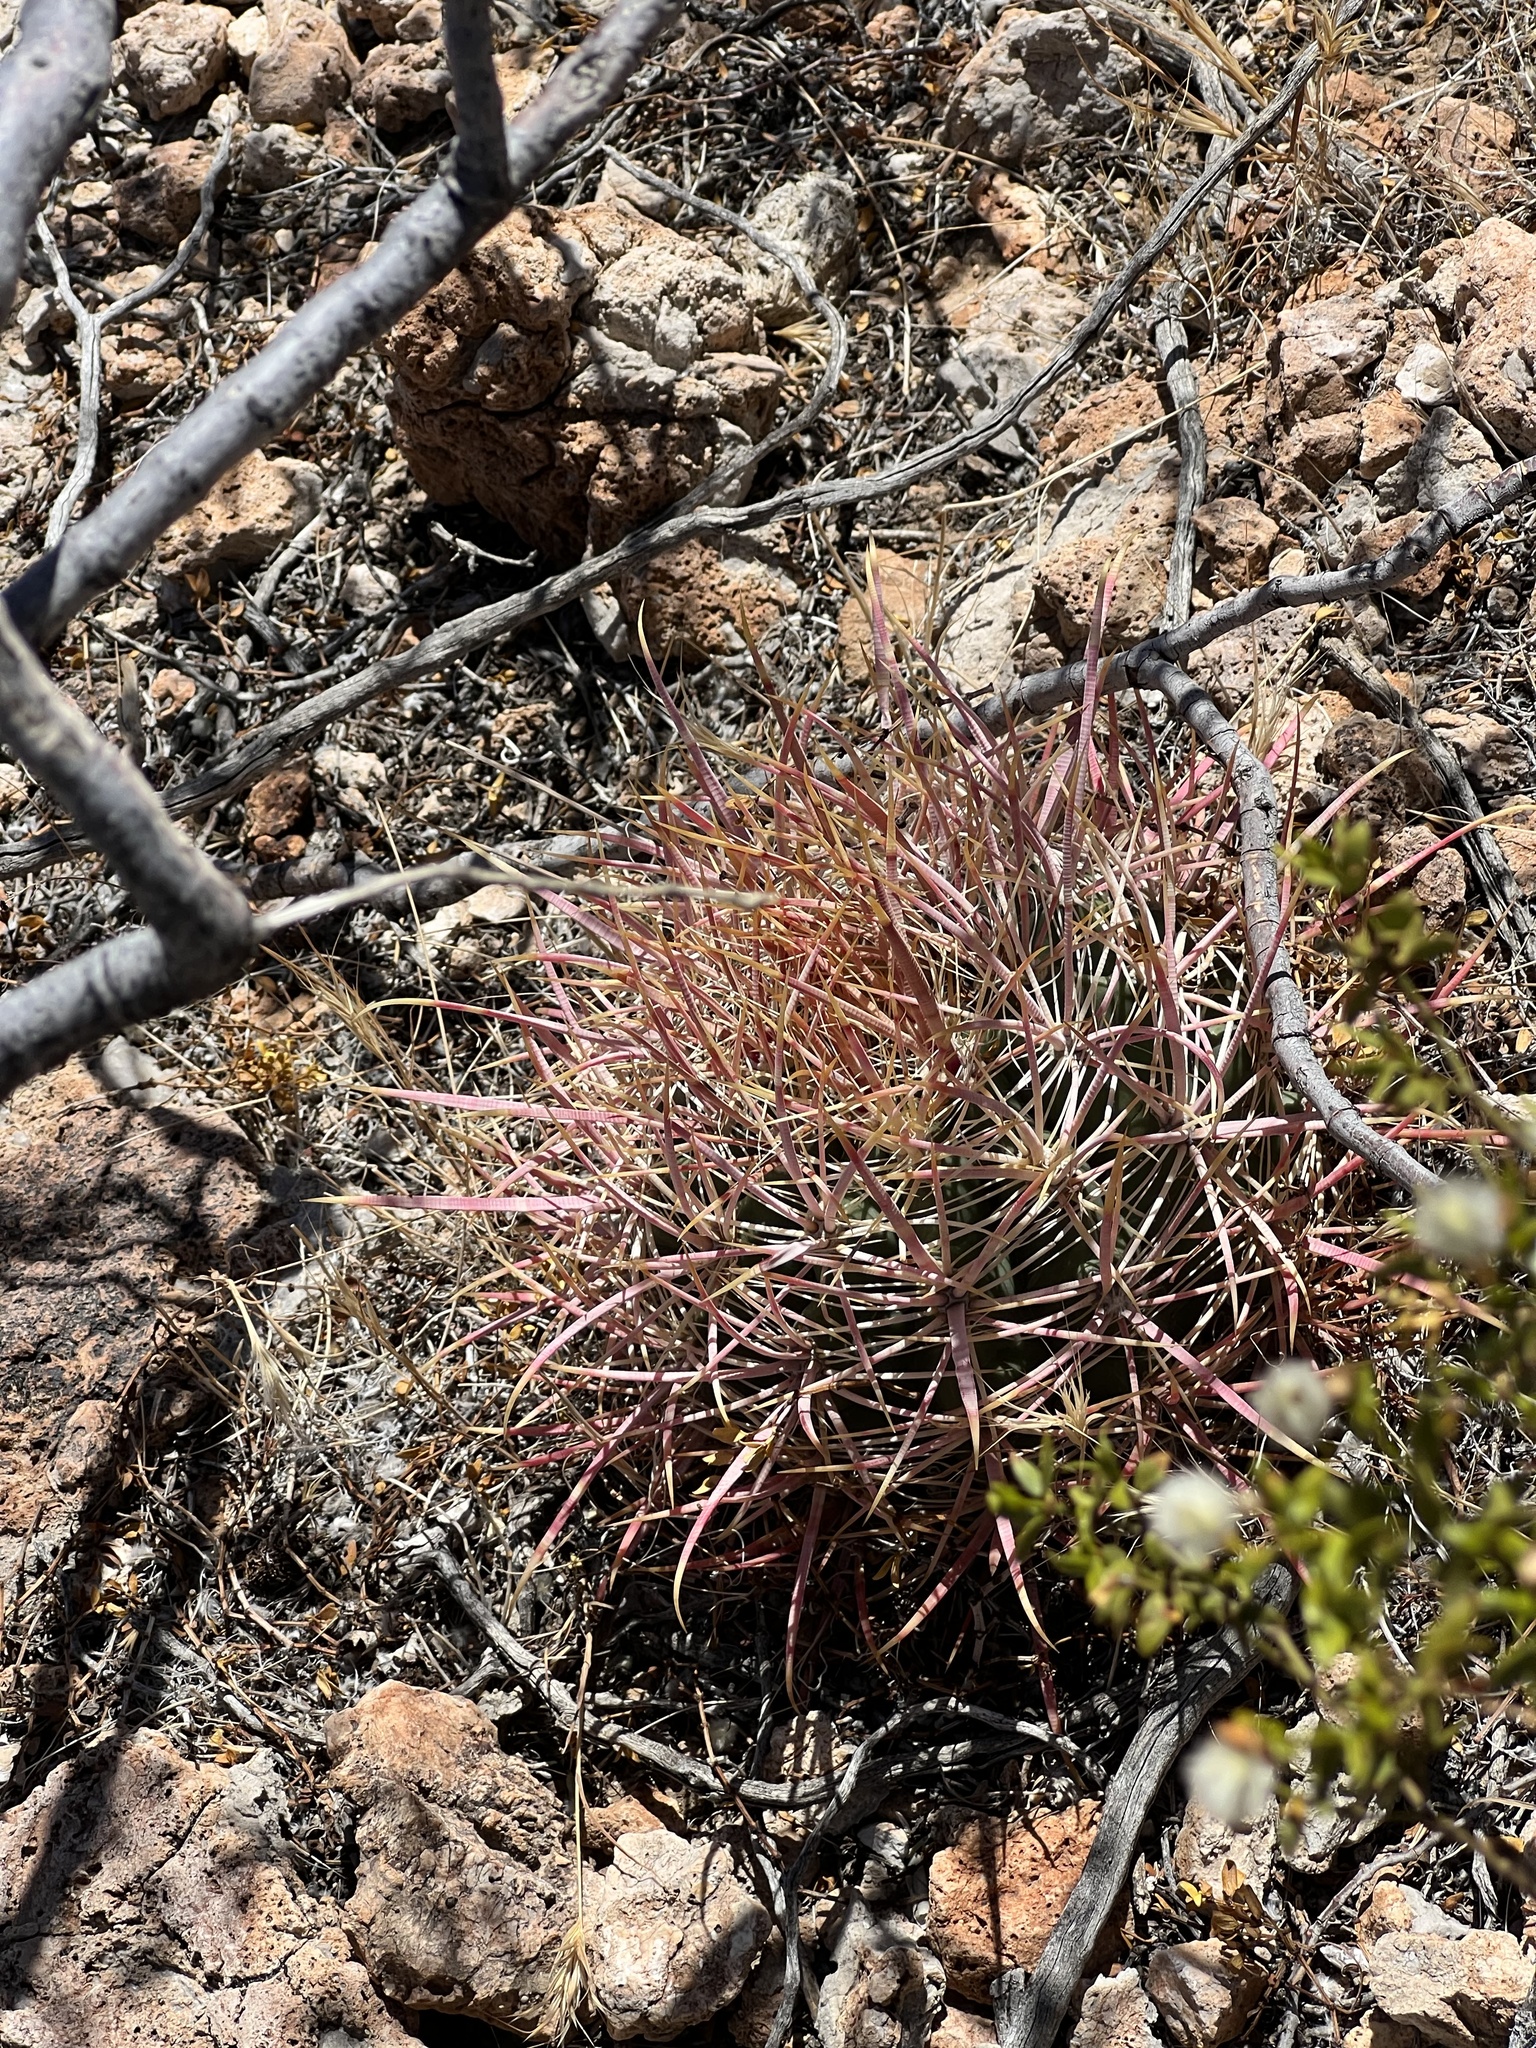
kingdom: Plantae
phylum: Tracheophyta
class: Magnoliopsida
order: Caryophyllales
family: Cactaceae
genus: Ferocactus
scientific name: Ferocactus cylindraceus
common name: California barrel cactus
